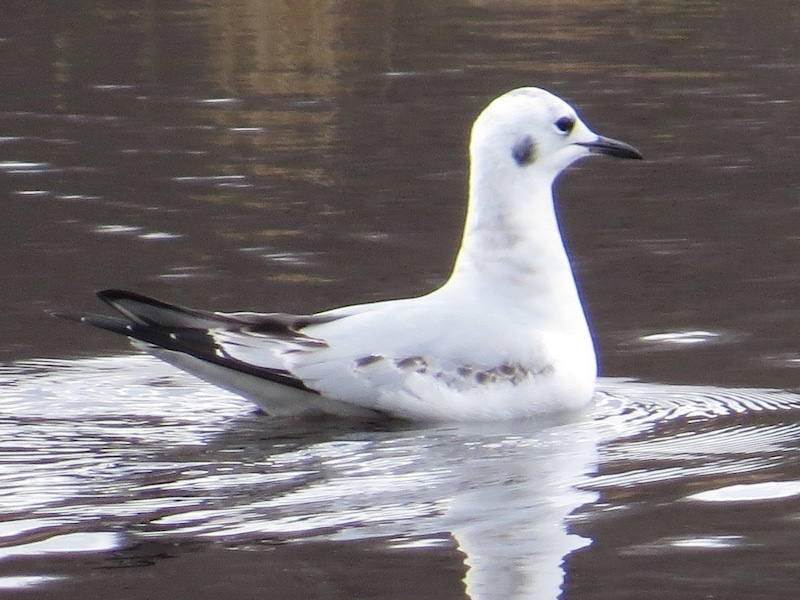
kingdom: Animalia
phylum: Chordata
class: Aves
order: Charadriiformes
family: Laridae
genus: Chroicocephalus
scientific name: Chroicocephalus philadelphia
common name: Bonaparte's gull
